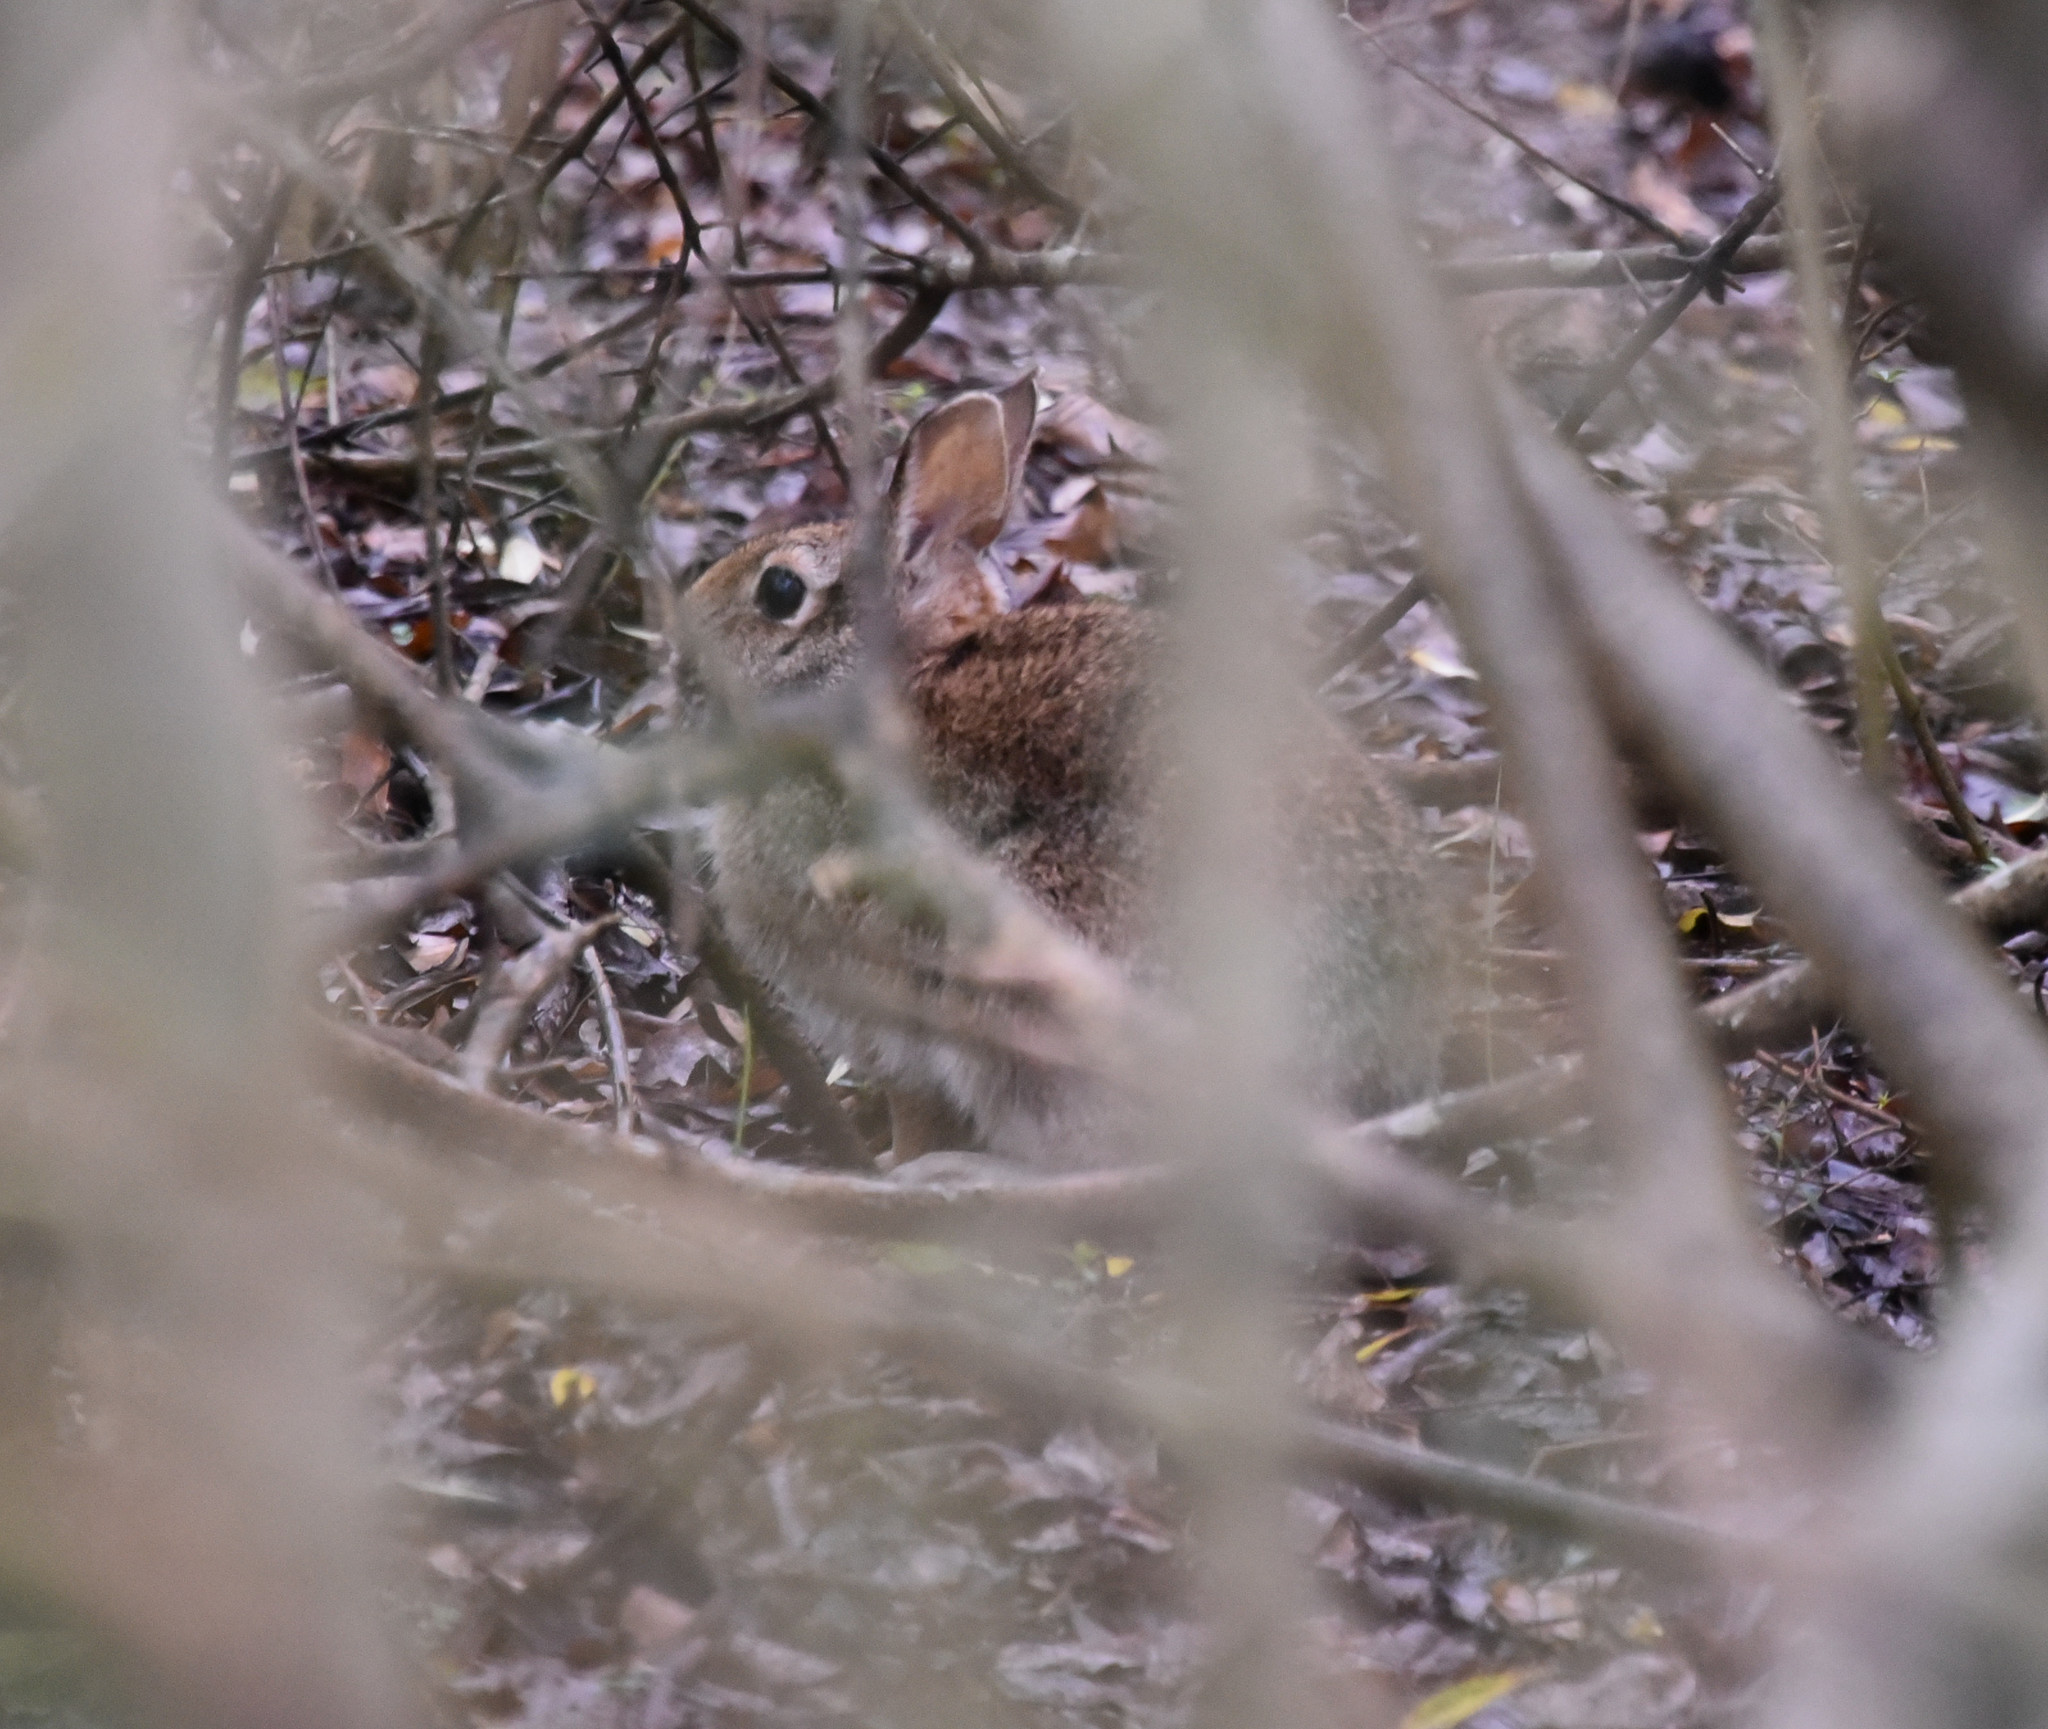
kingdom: Animalia
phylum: Chordata
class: Mammalia
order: Lagomorpha
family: Leporidae
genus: Sylvilagus
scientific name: Sylvilagus floridanus
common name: Eastern cottontail
